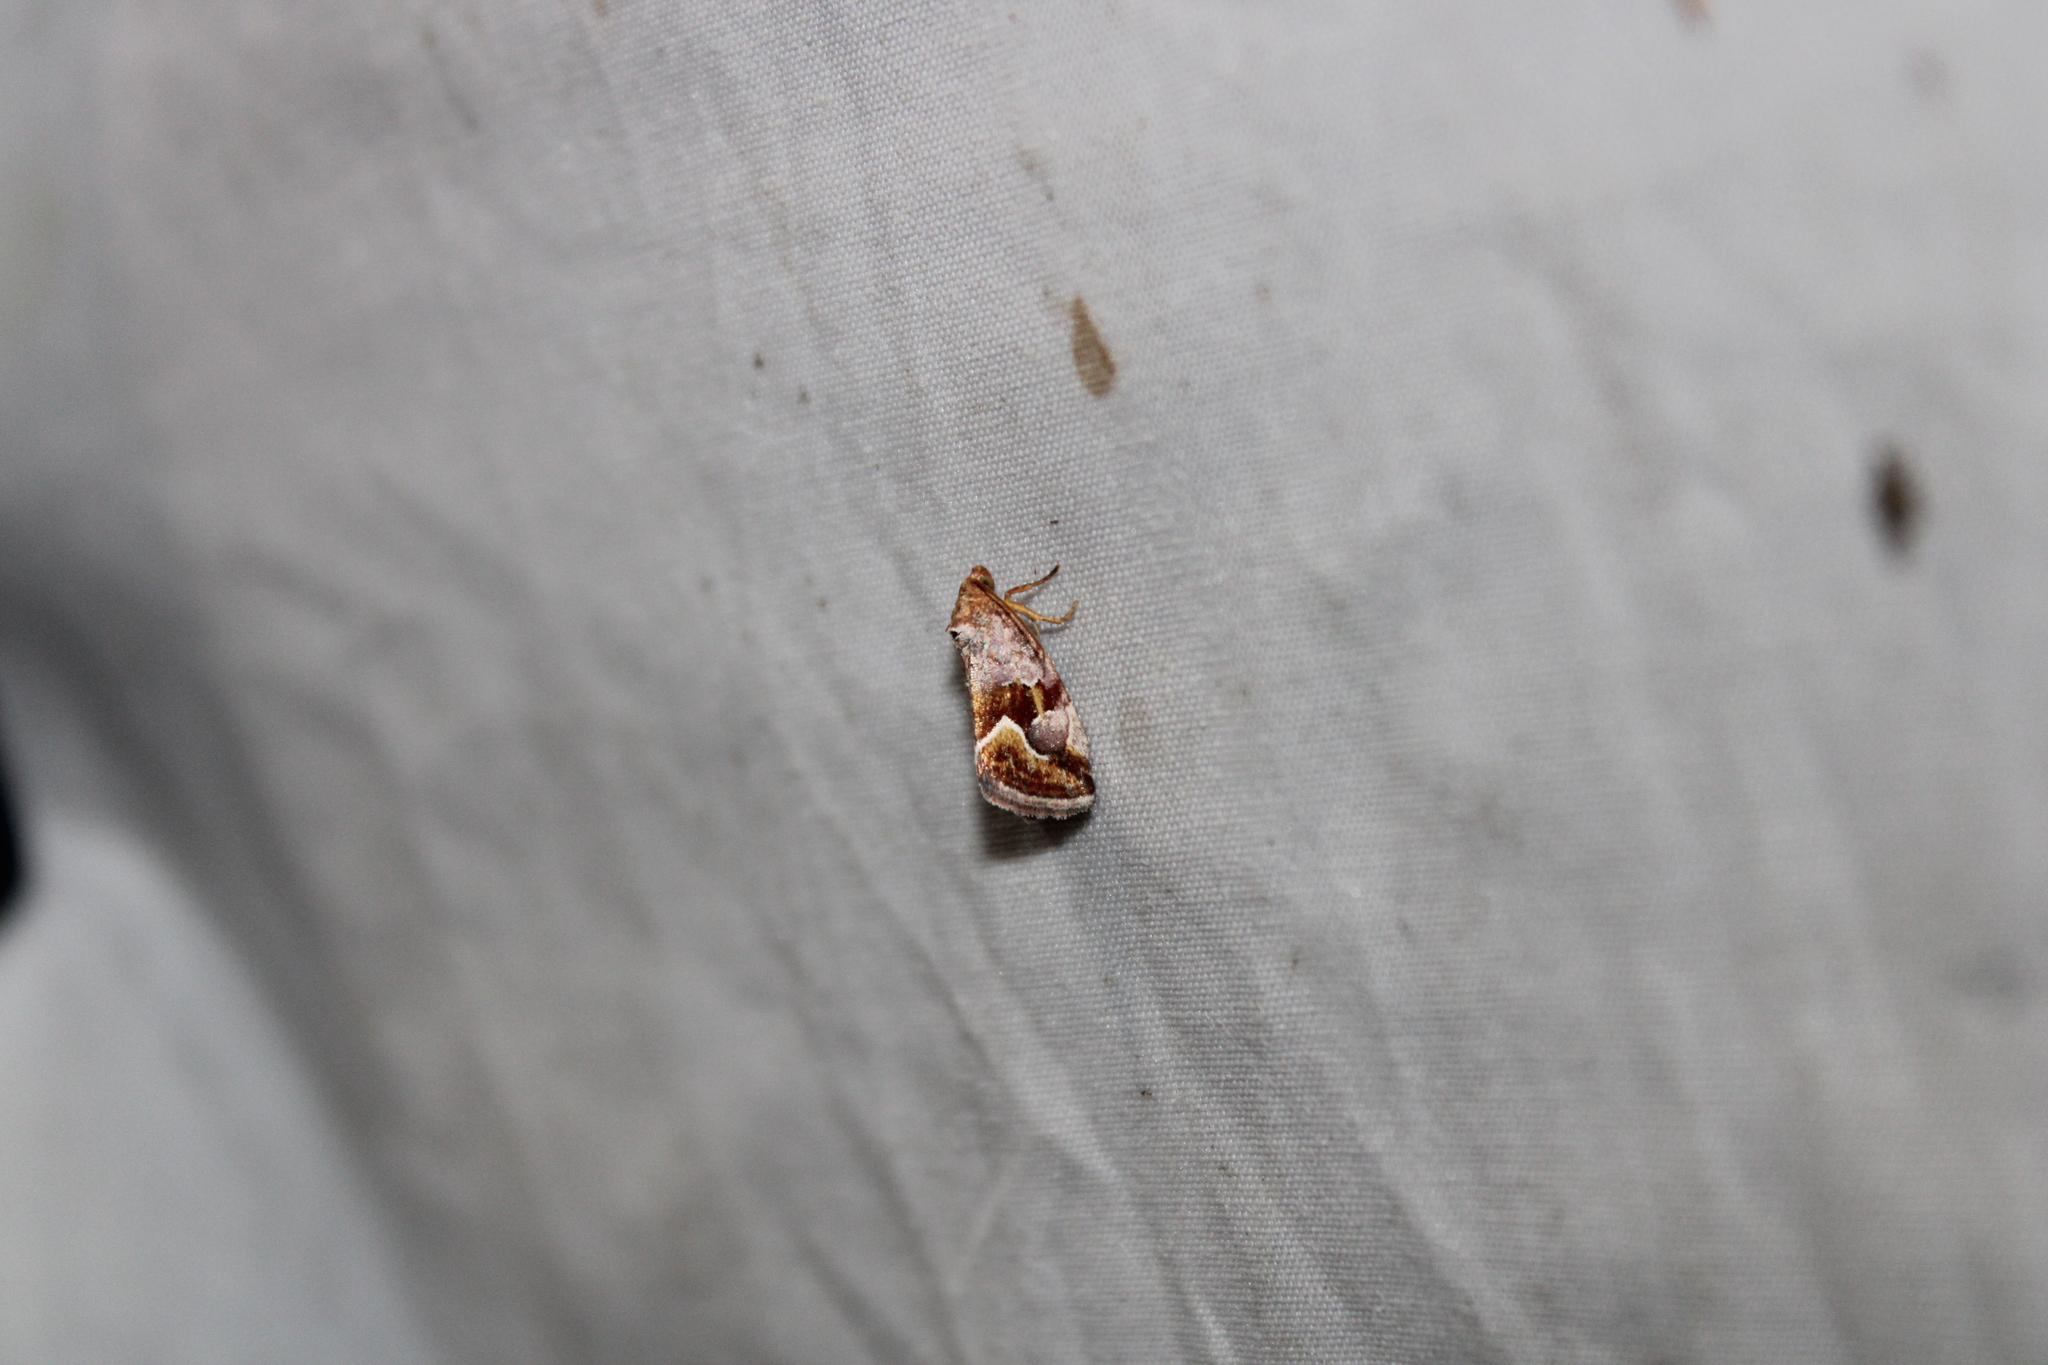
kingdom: Animalia
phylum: Arthropoda
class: Insecta
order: Lepidoptera
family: Noctuidae
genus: Deltote
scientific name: Deltote bellicula
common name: Bog glyph
